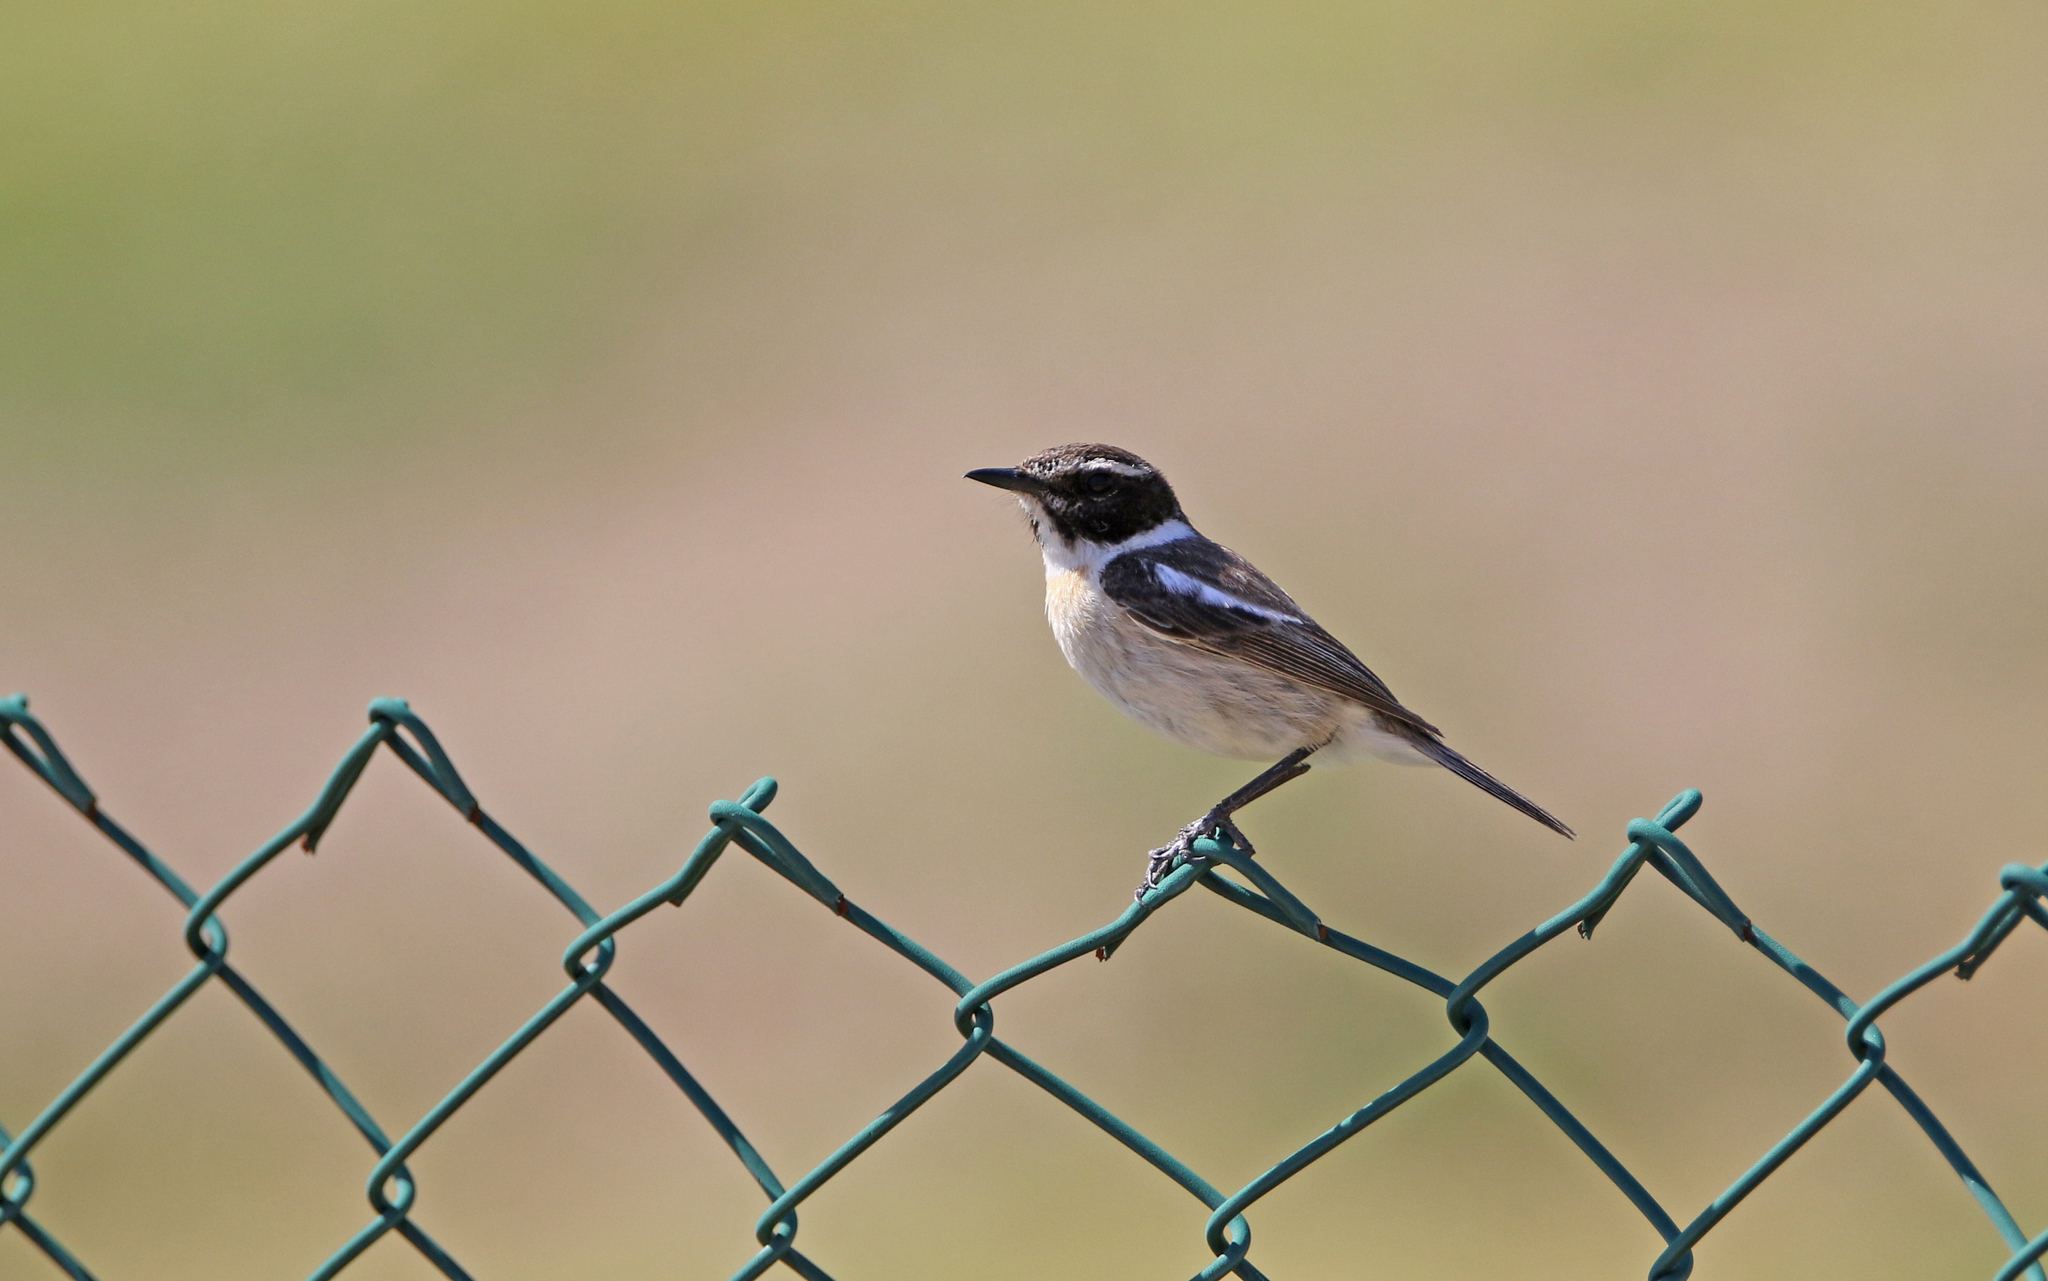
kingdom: Animalia
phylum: Chordata
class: Aves
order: Passeriformes
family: Muscicapidae
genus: Saxicola
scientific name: Saxicola dacotiae
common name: Canary islands stonechat
